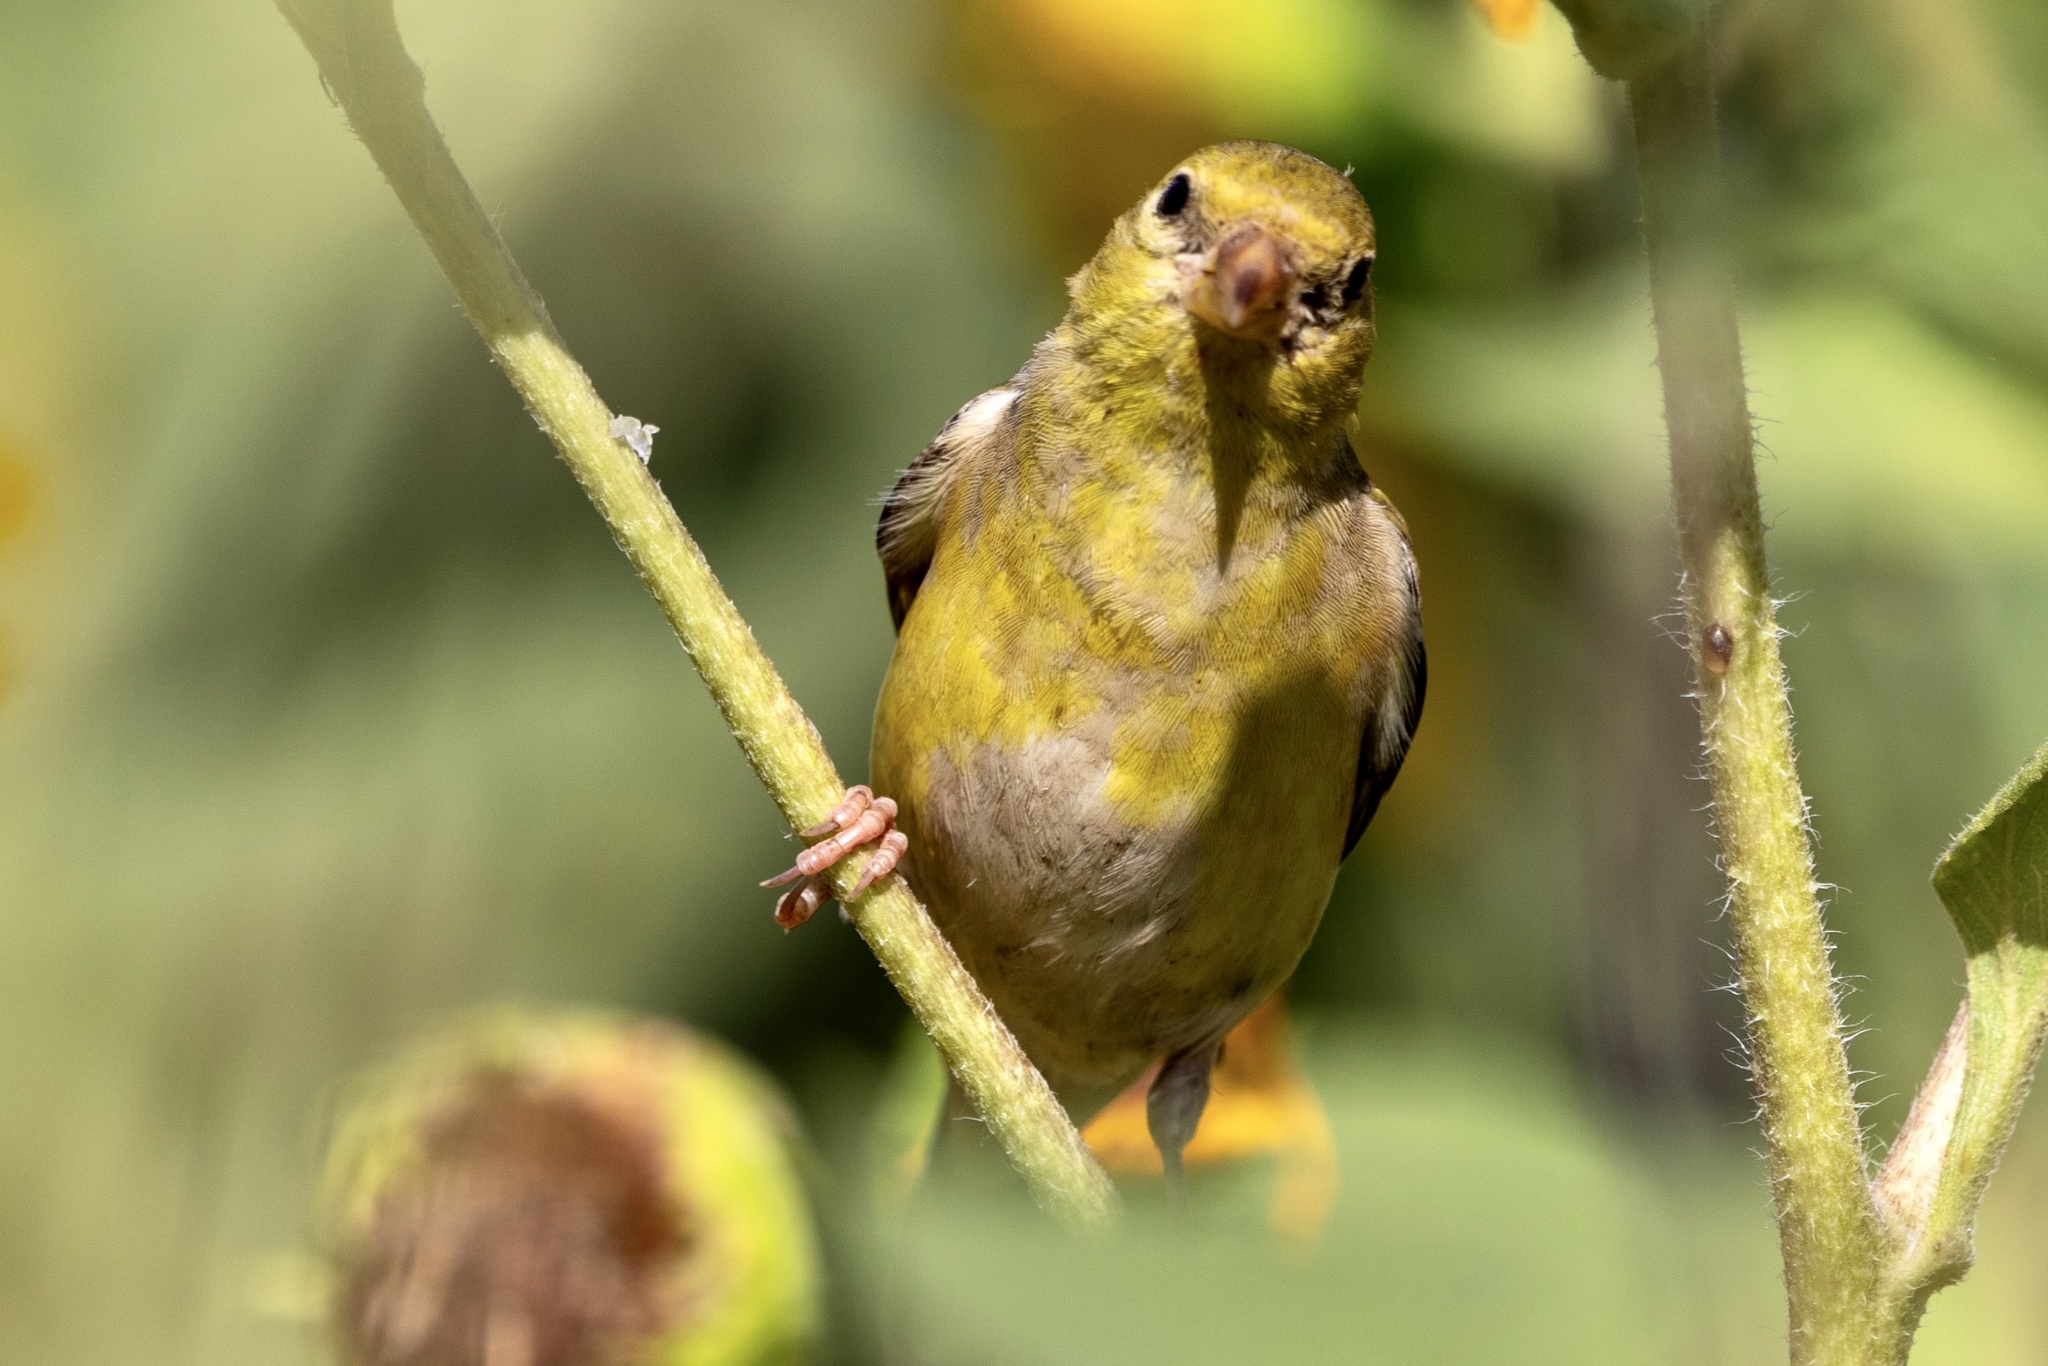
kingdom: Animalia
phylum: Chordata
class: Aves
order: Passeriformes
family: Fringillidae
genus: Spinus
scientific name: Spinus tristis
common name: American goldfinch
